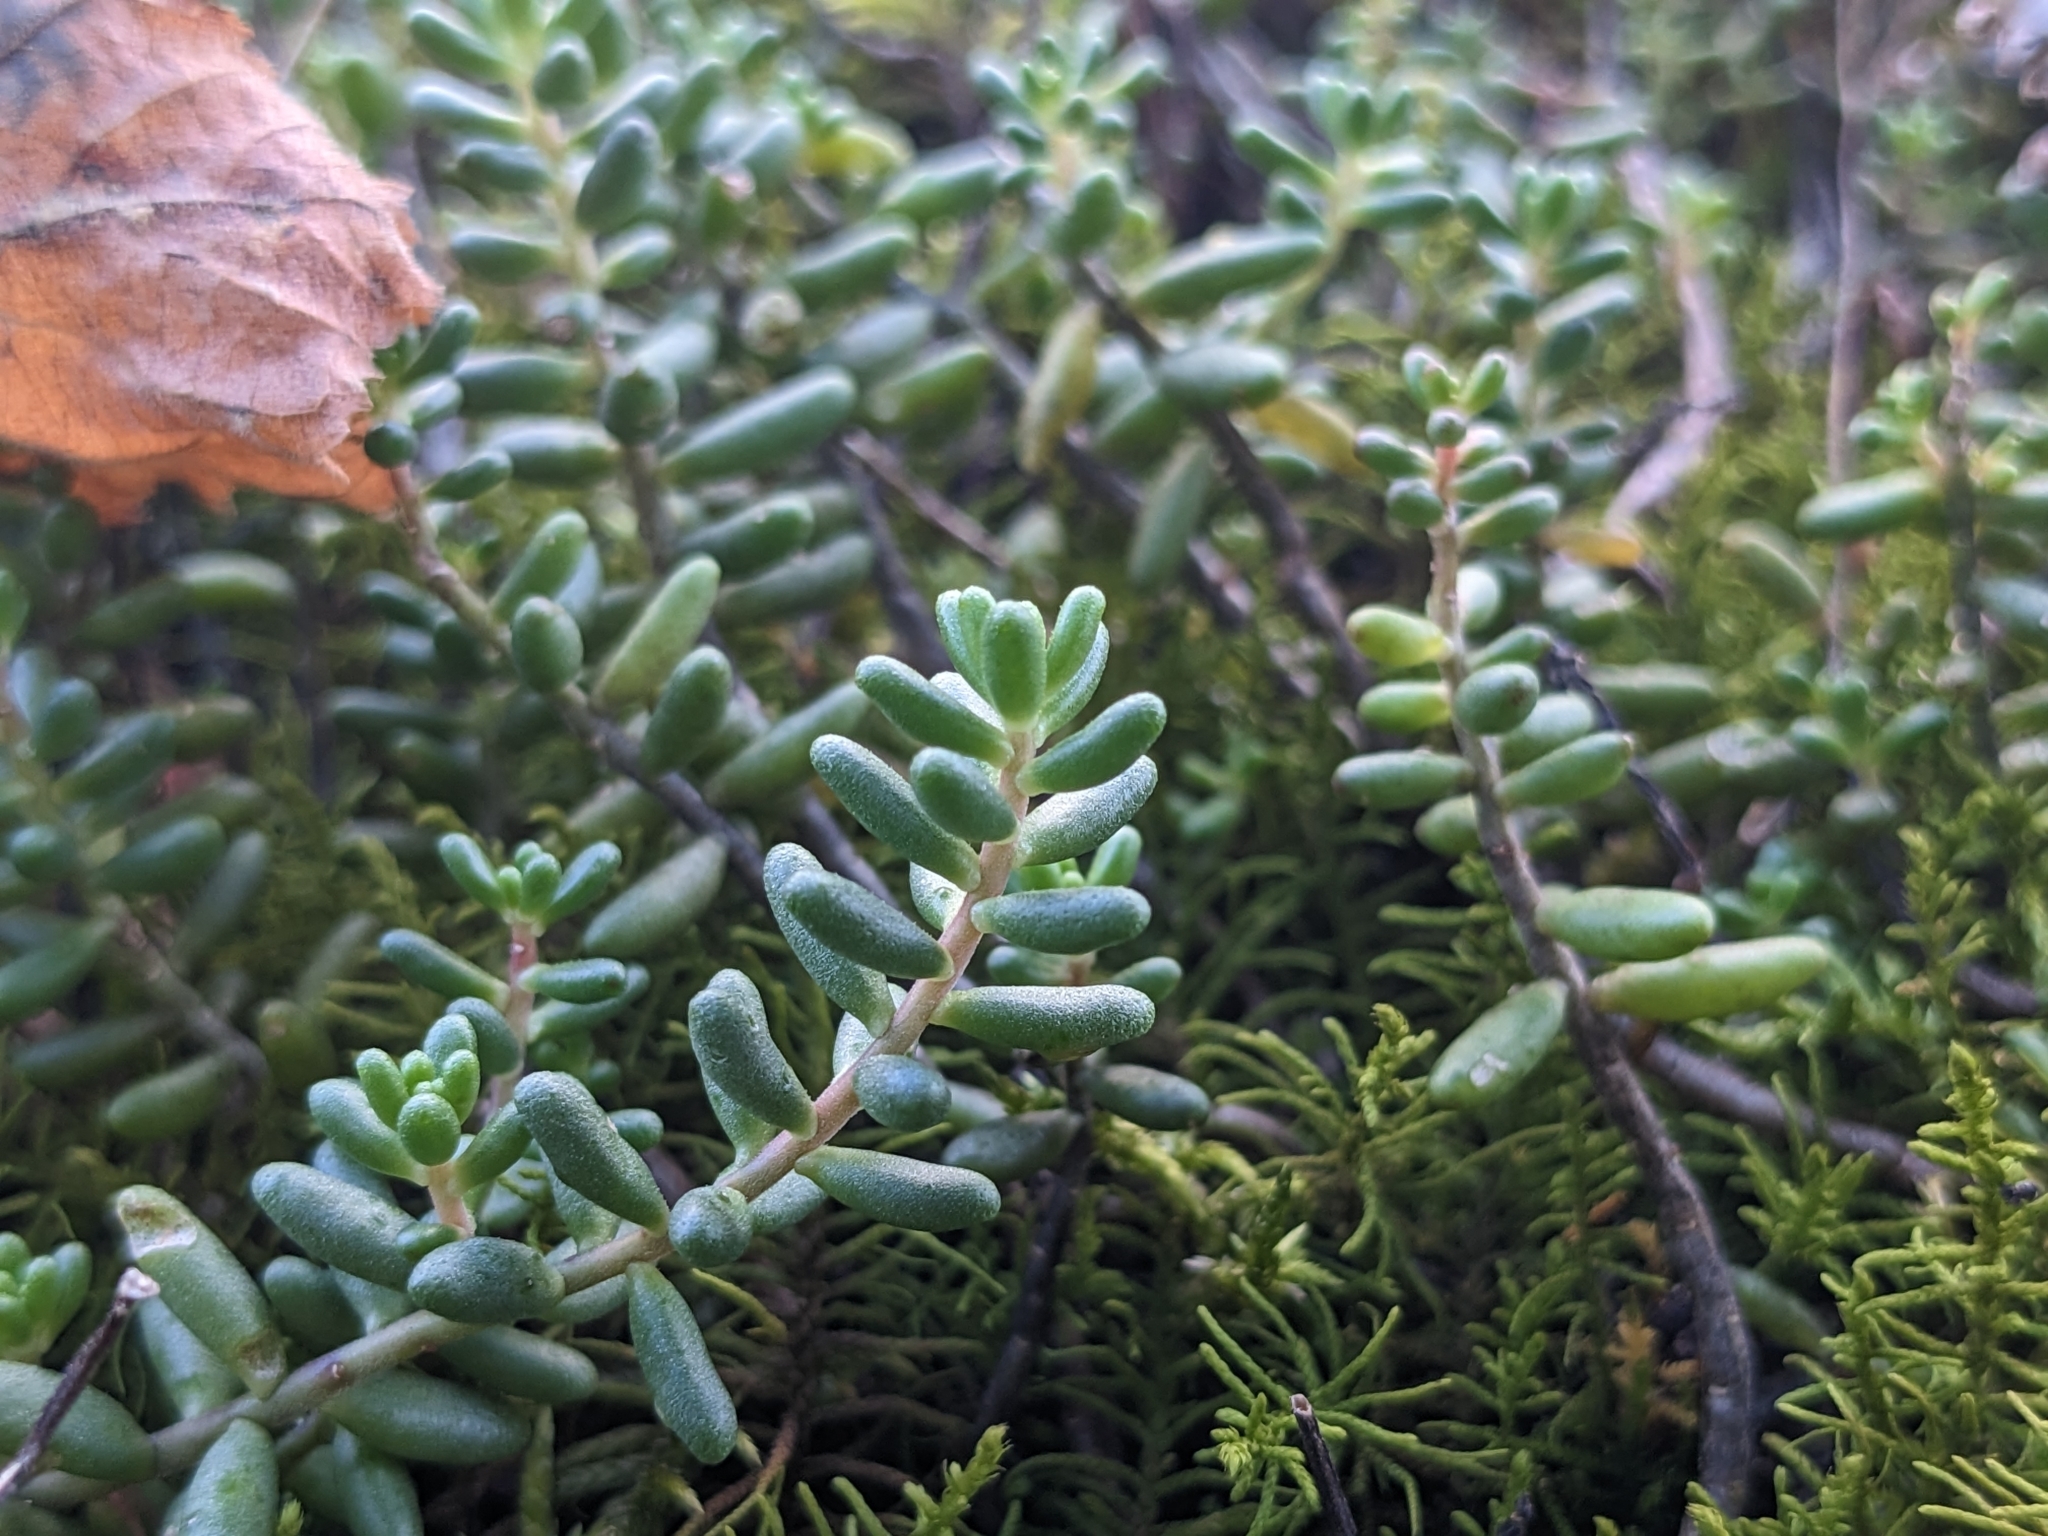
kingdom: Plantae
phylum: Tracheophyta
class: Magnoliopsida
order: Saxifragales
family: Crassulaceae
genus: Sedum
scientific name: Sedum album
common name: White stonecrop
